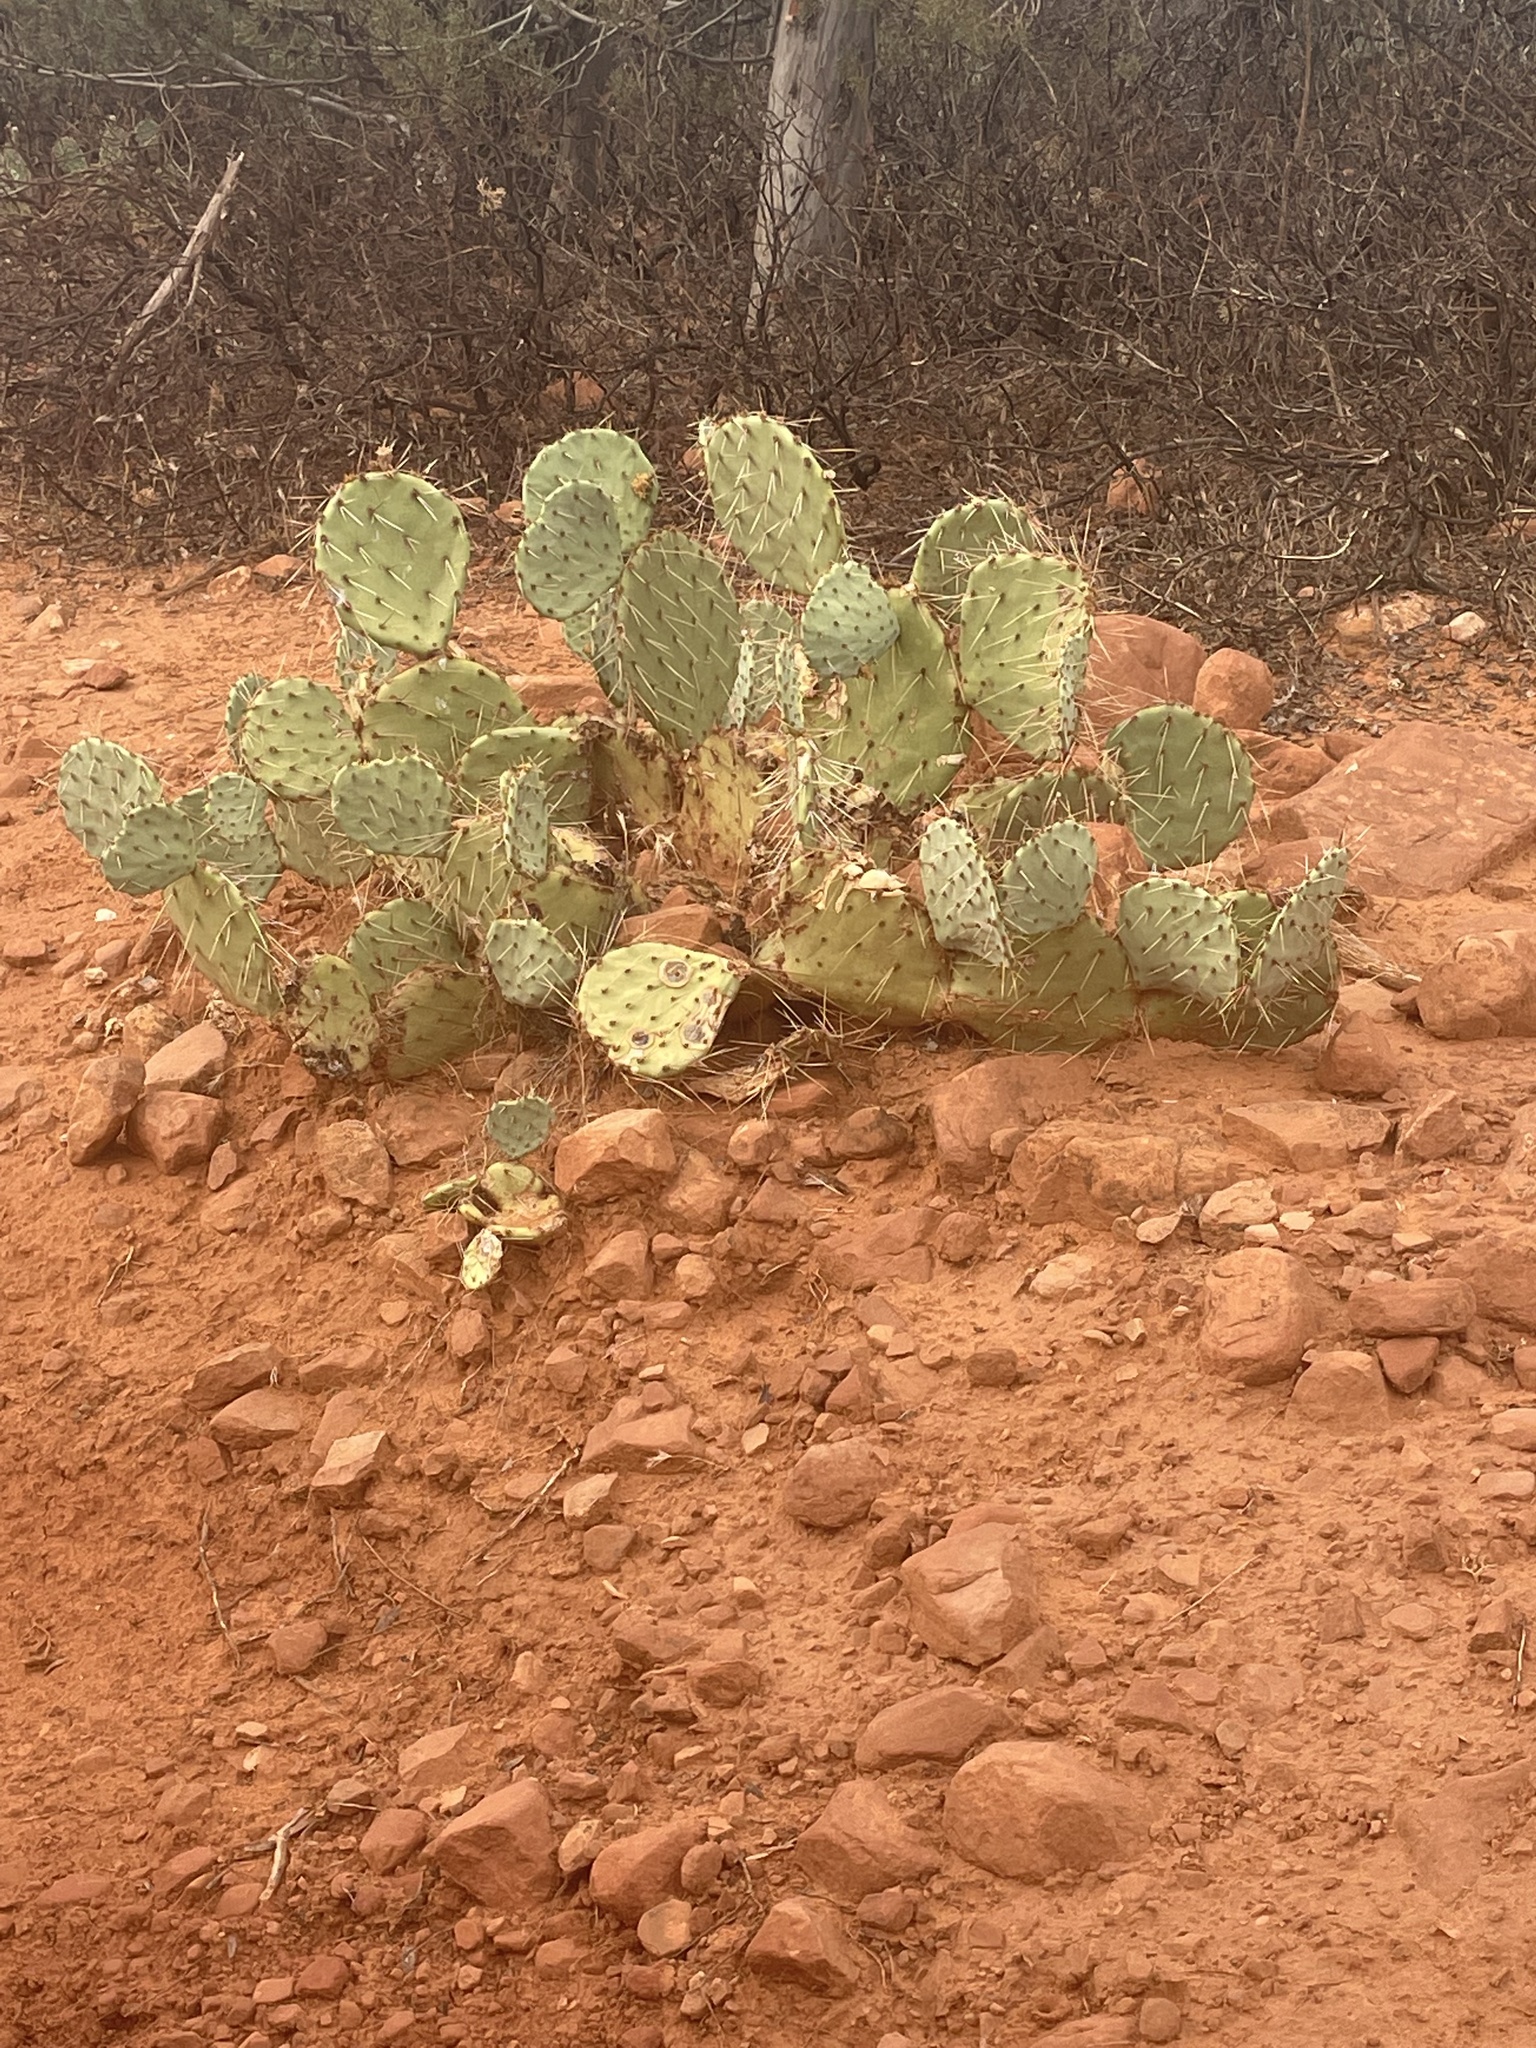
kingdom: Plantae
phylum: Tracheophyta
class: Magnoliopsida
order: Caryophyllales
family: Cactaceae
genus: Opuntia
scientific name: Opuntia
